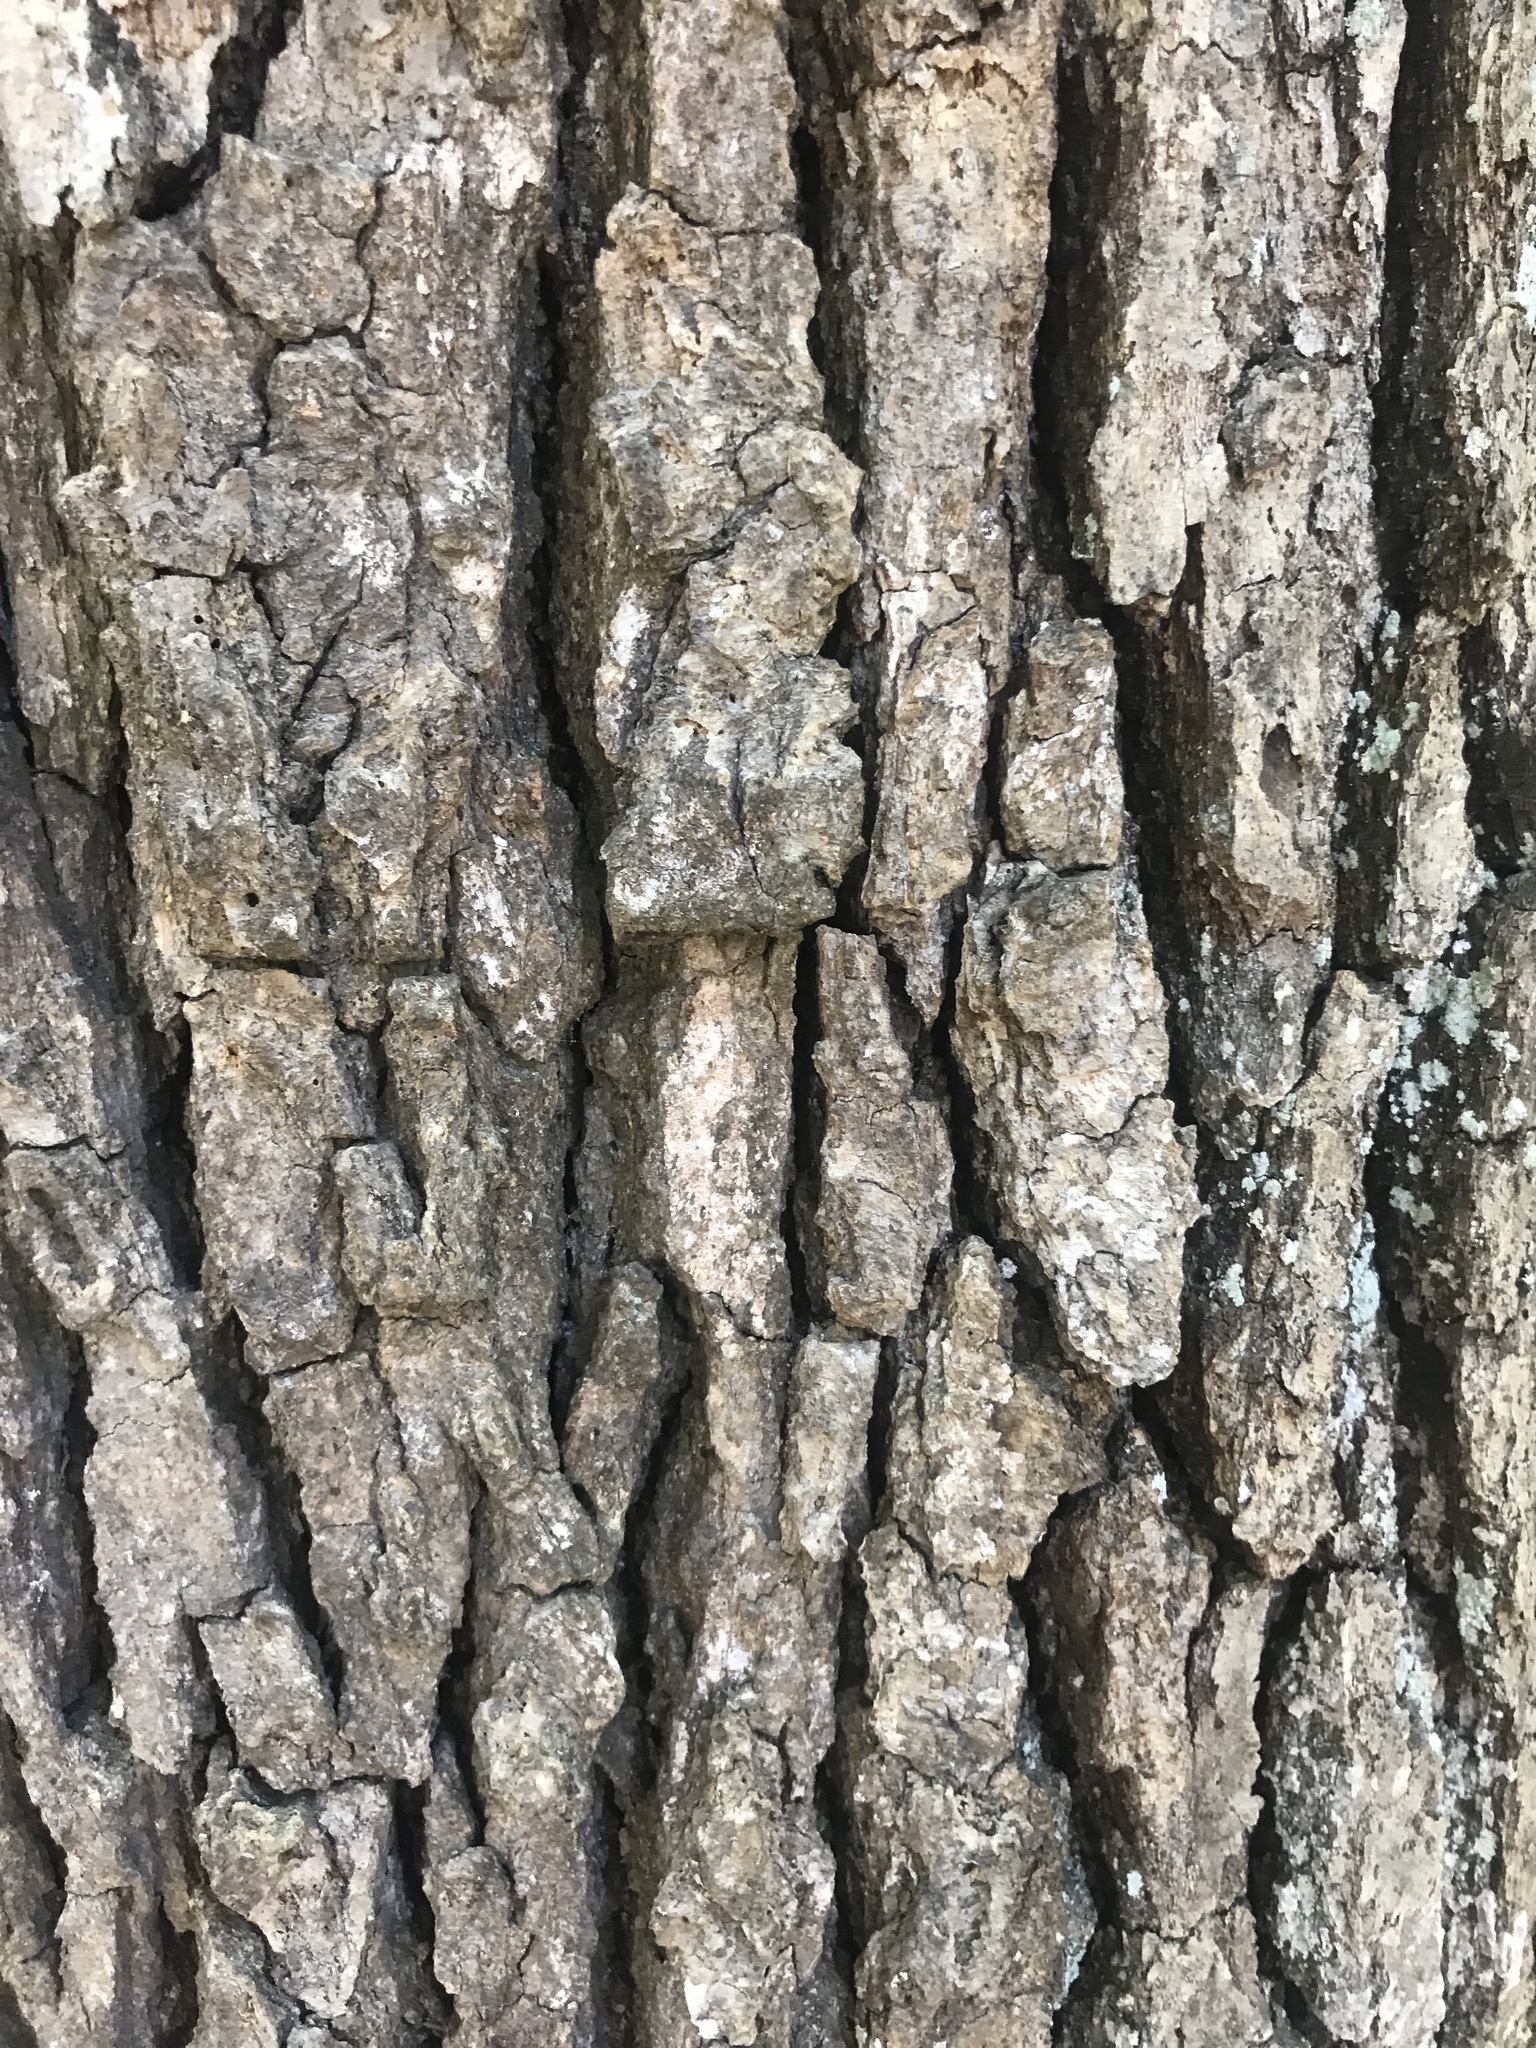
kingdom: Plantae
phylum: Tracheophyta
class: Magnoliopsida
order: Fagales
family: Fagaceae
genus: Quercus
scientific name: Quercus alba
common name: White oak
